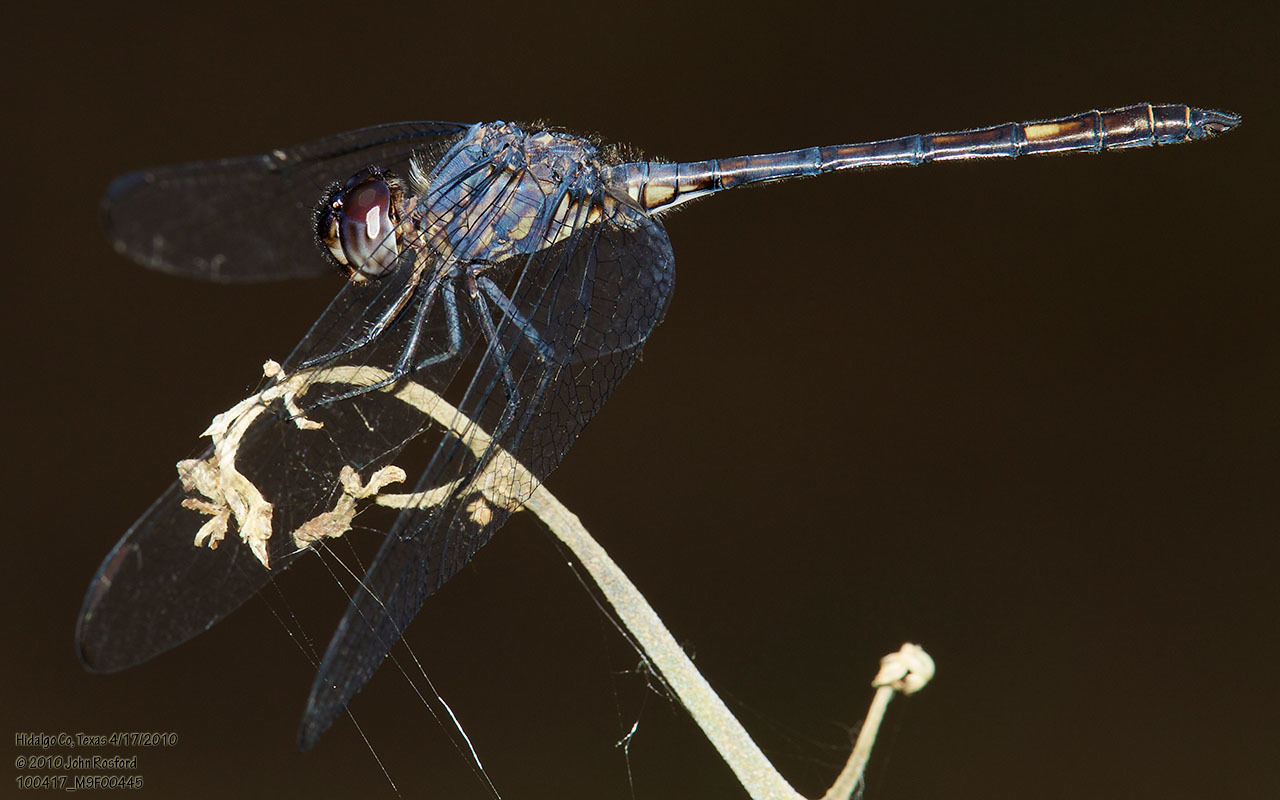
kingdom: Animalia
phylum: Arthropoda
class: Insecta
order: Odonata
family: Libellulidae
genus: Dythemis
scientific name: Dythemis nigrescens
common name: Black setwing
